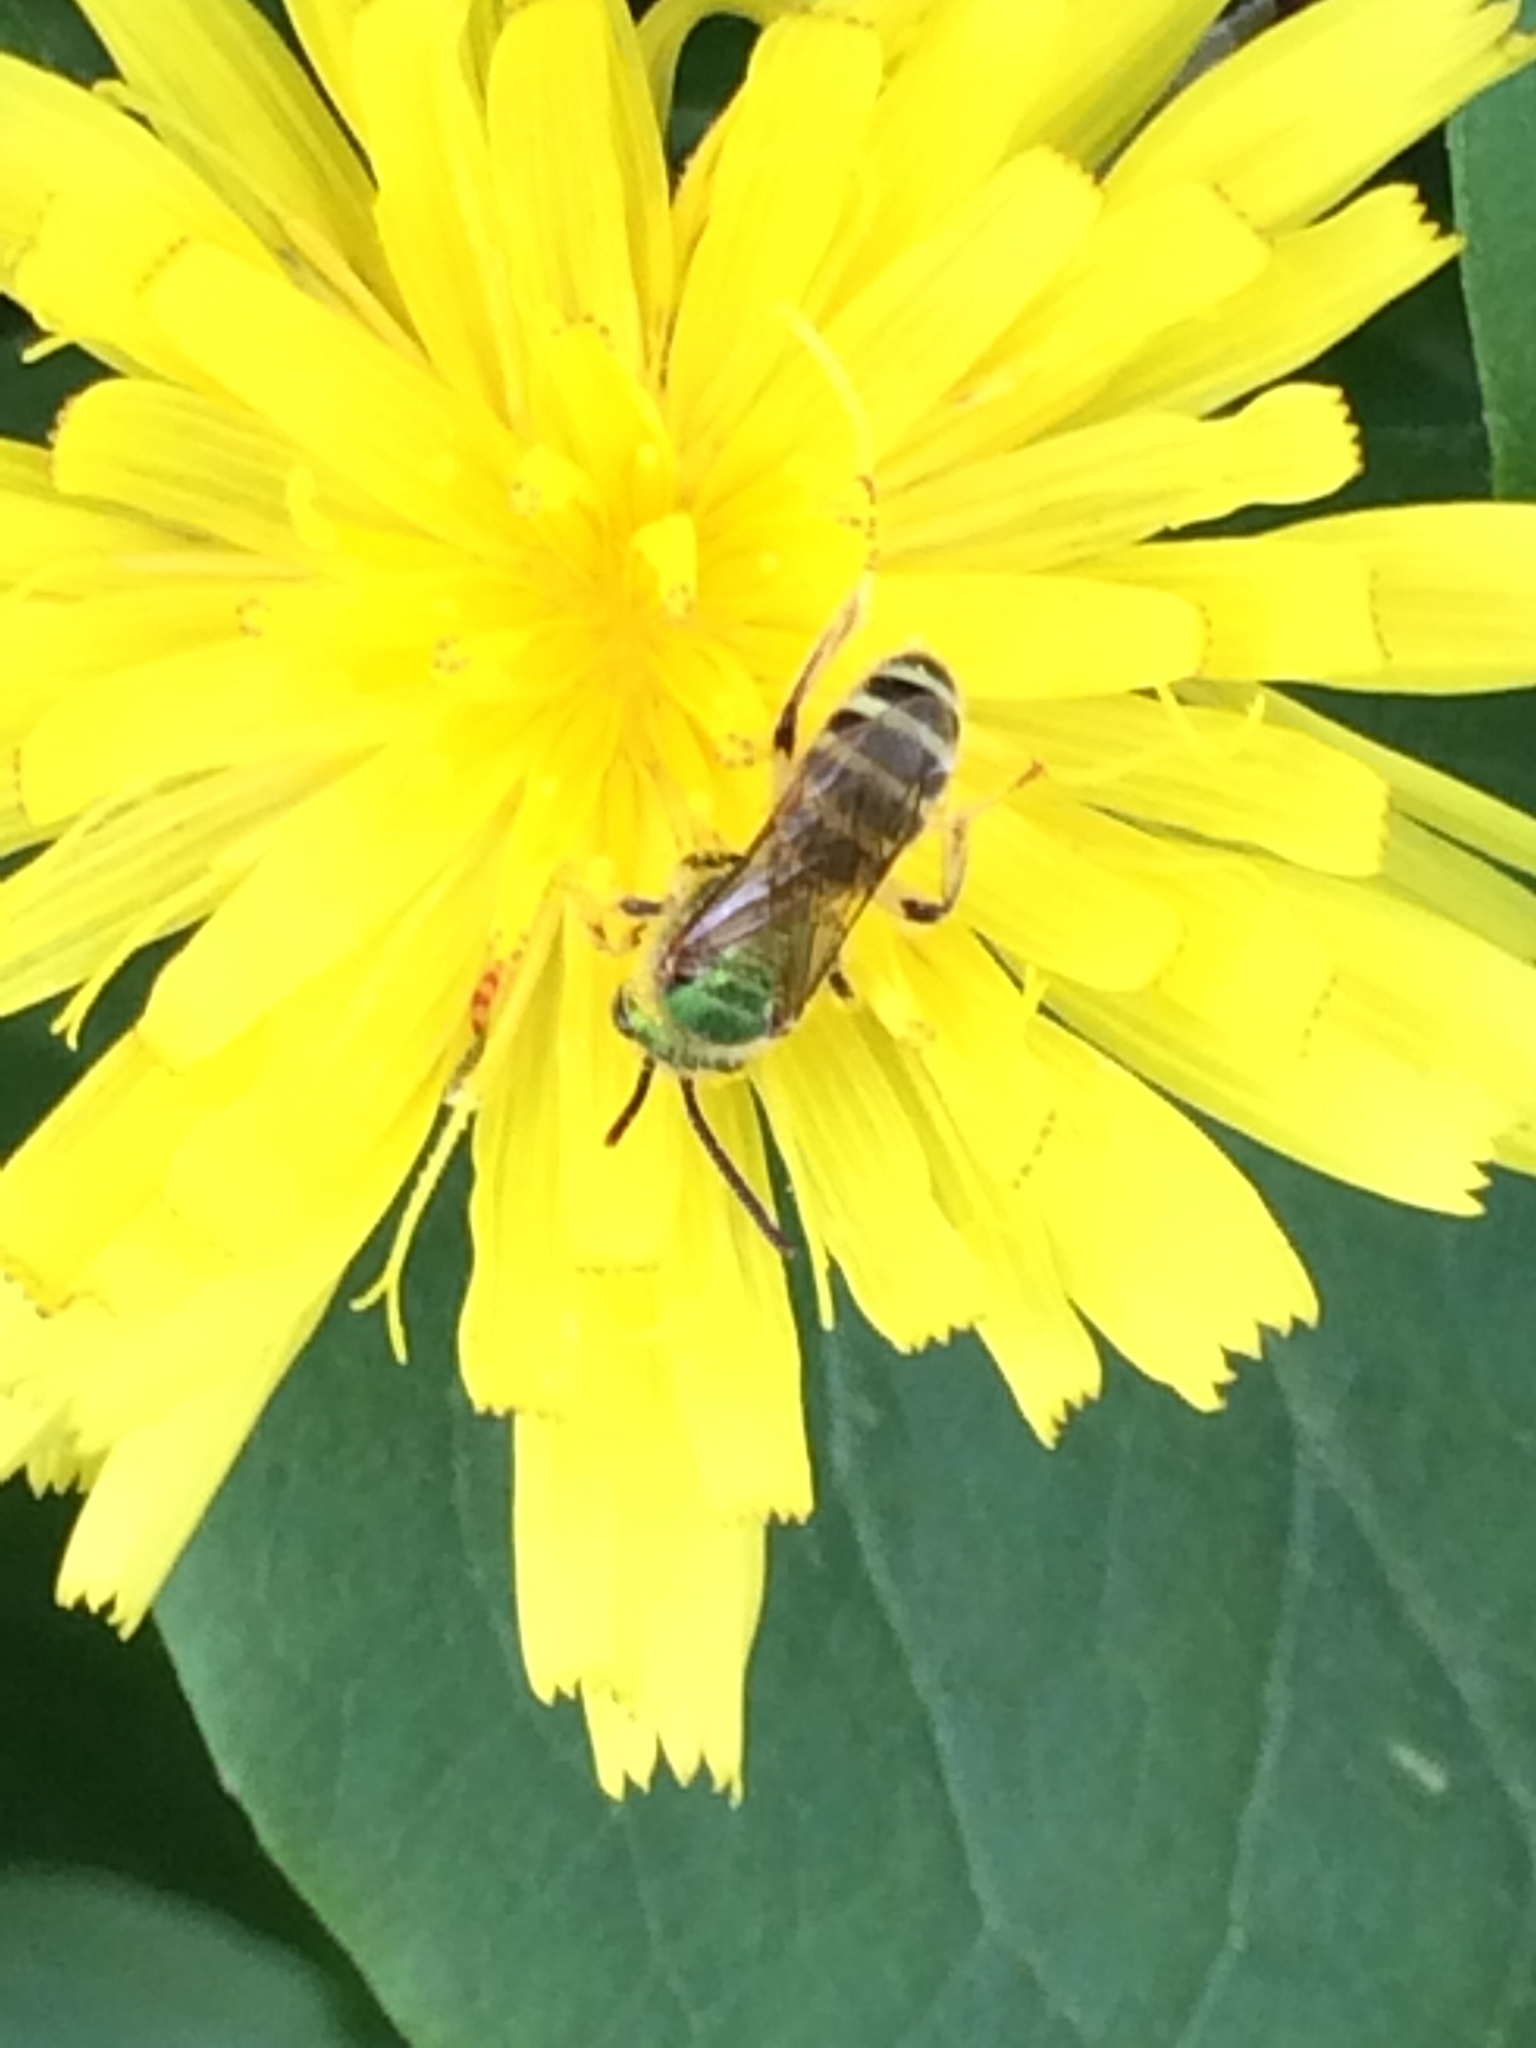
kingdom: Animalia
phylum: Arthropoda
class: Insecta
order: Hymenoptera
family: Halictidae
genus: Agapostemon
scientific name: Agapostemon virescens
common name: Bicolored striped sweat bee
